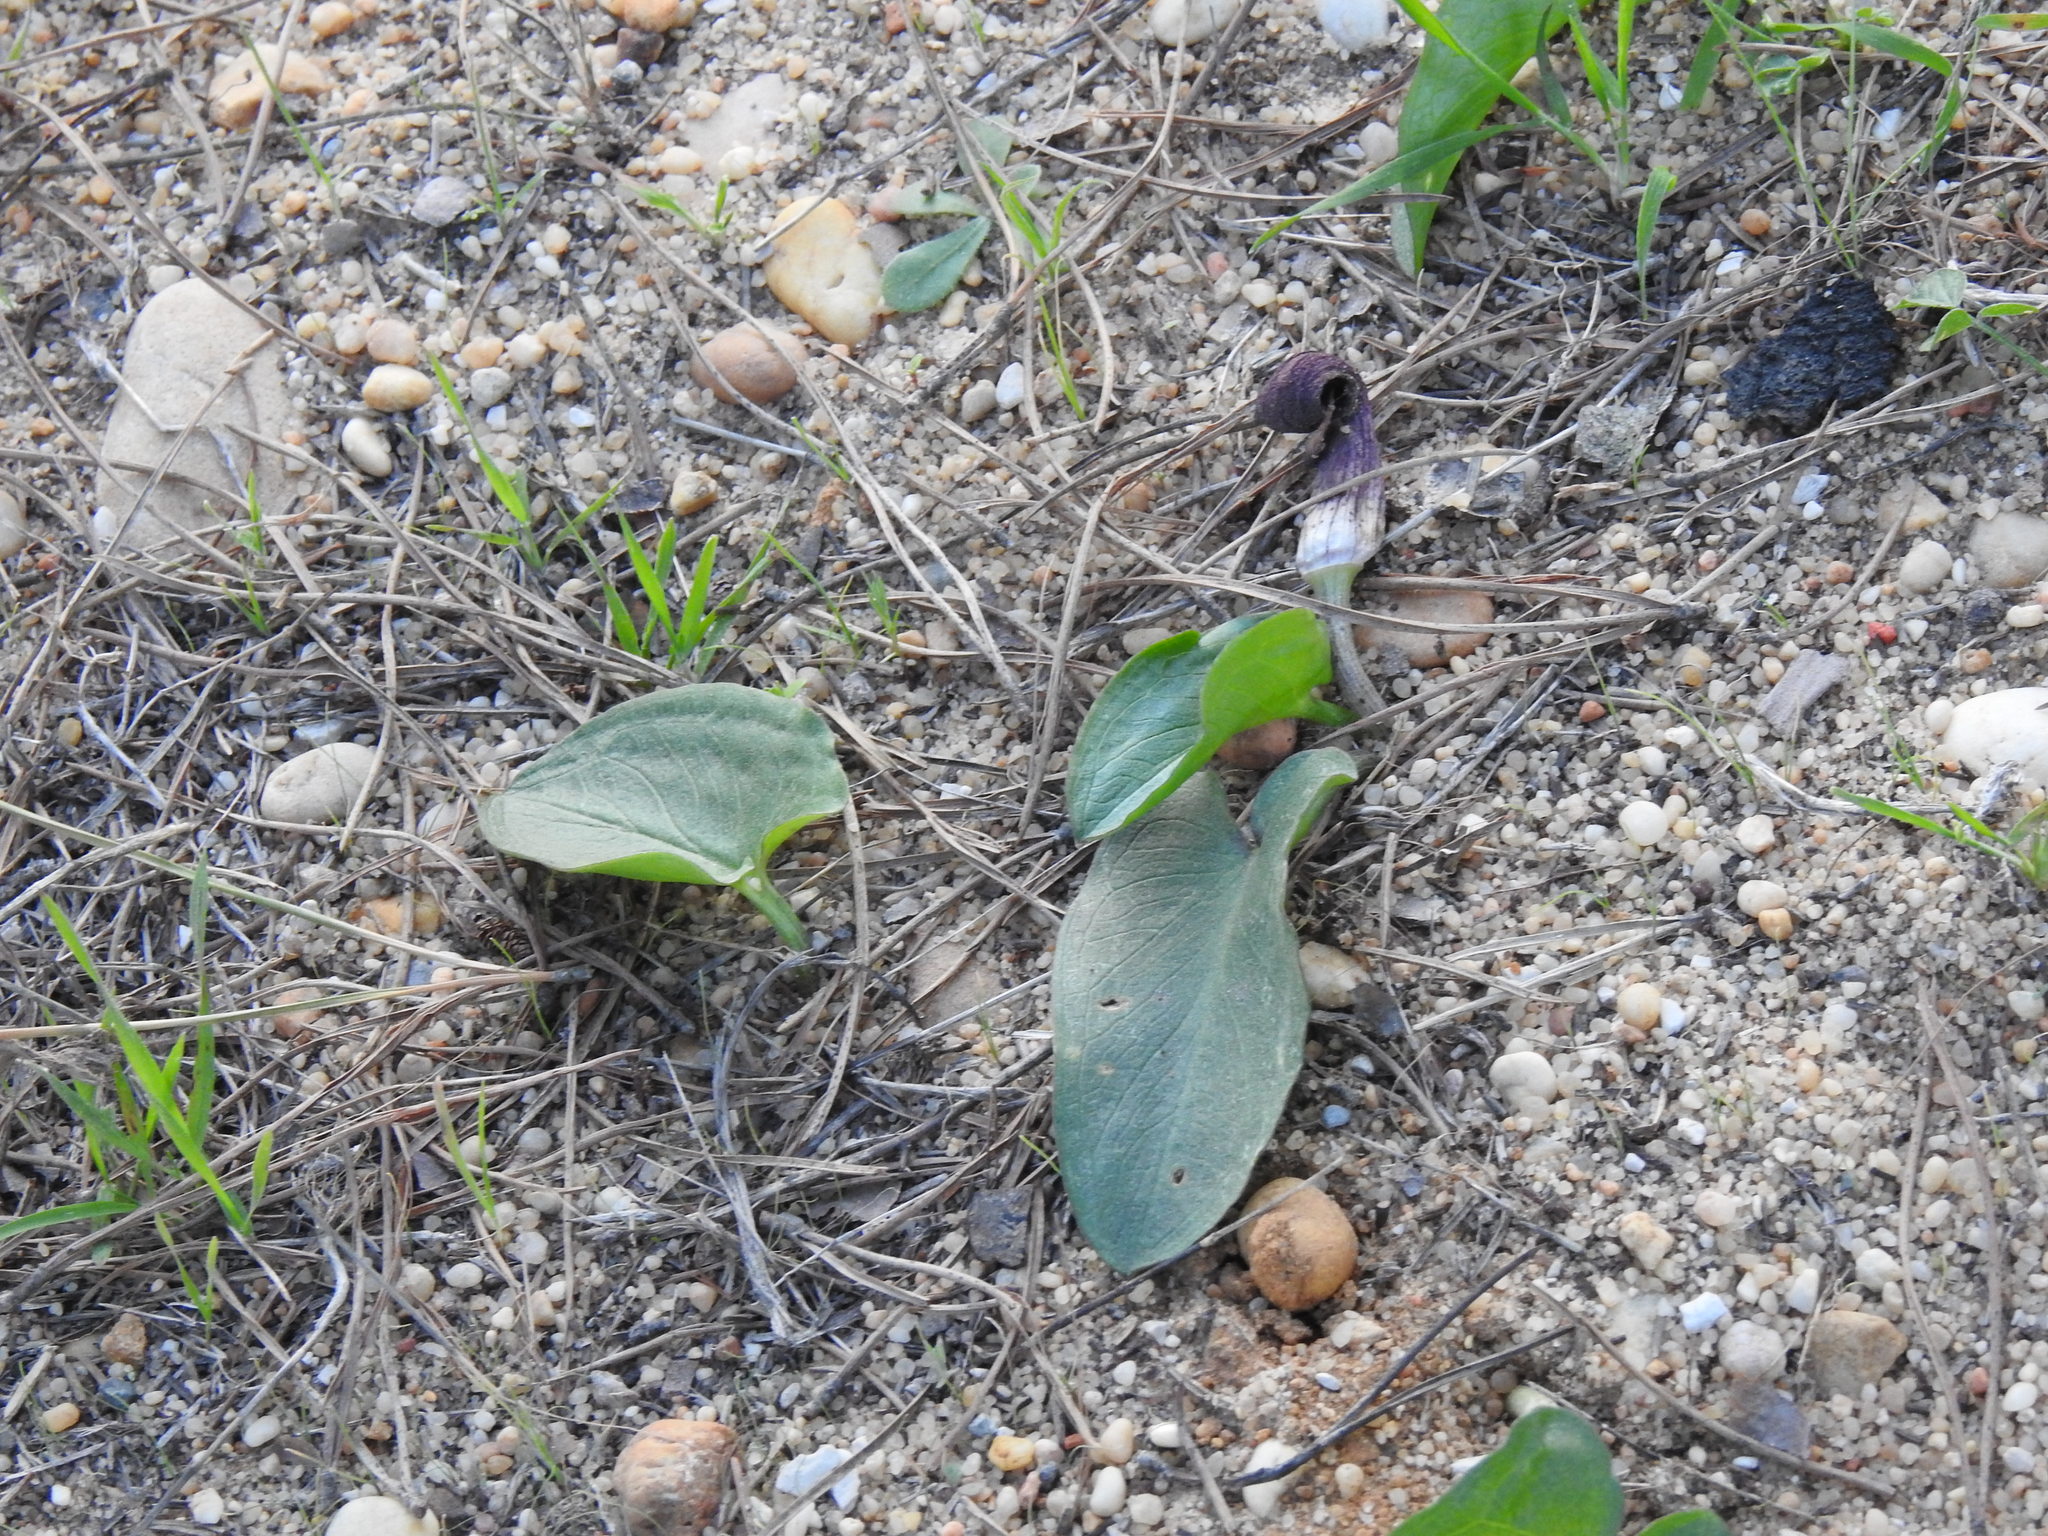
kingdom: Plantae
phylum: Tracheophyta
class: Liliopsida
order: Alismatales
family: Araceae
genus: Arisarum
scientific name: Arisarum simorrhinum
